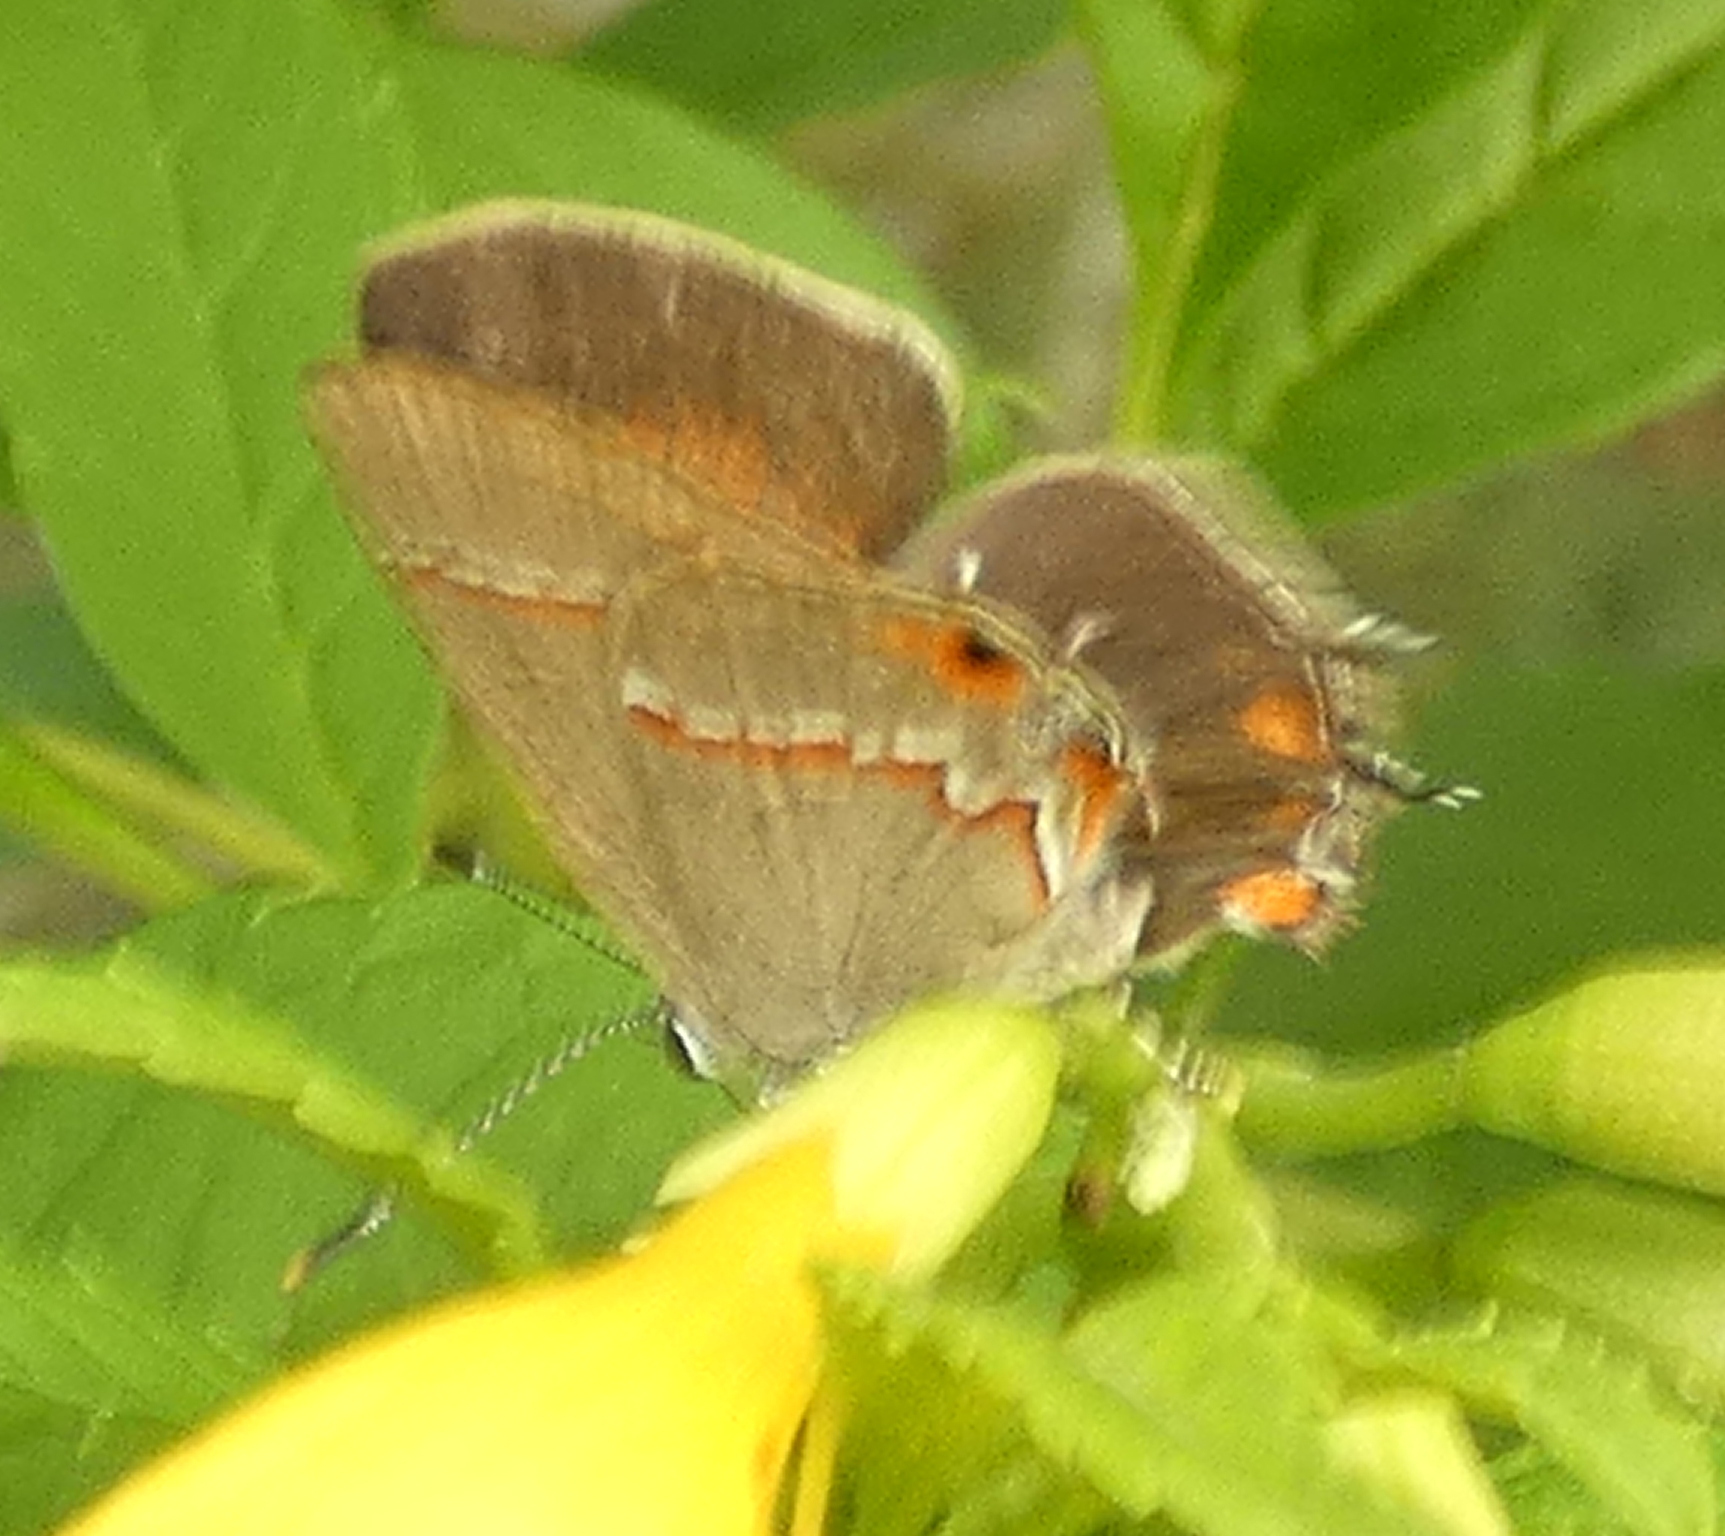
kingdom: Animalia
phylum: Arthropoda
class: Insecta
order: Lepidoptera
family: Lycaenidae
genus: Electrostrymon
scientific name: Electrostrymon endymion
